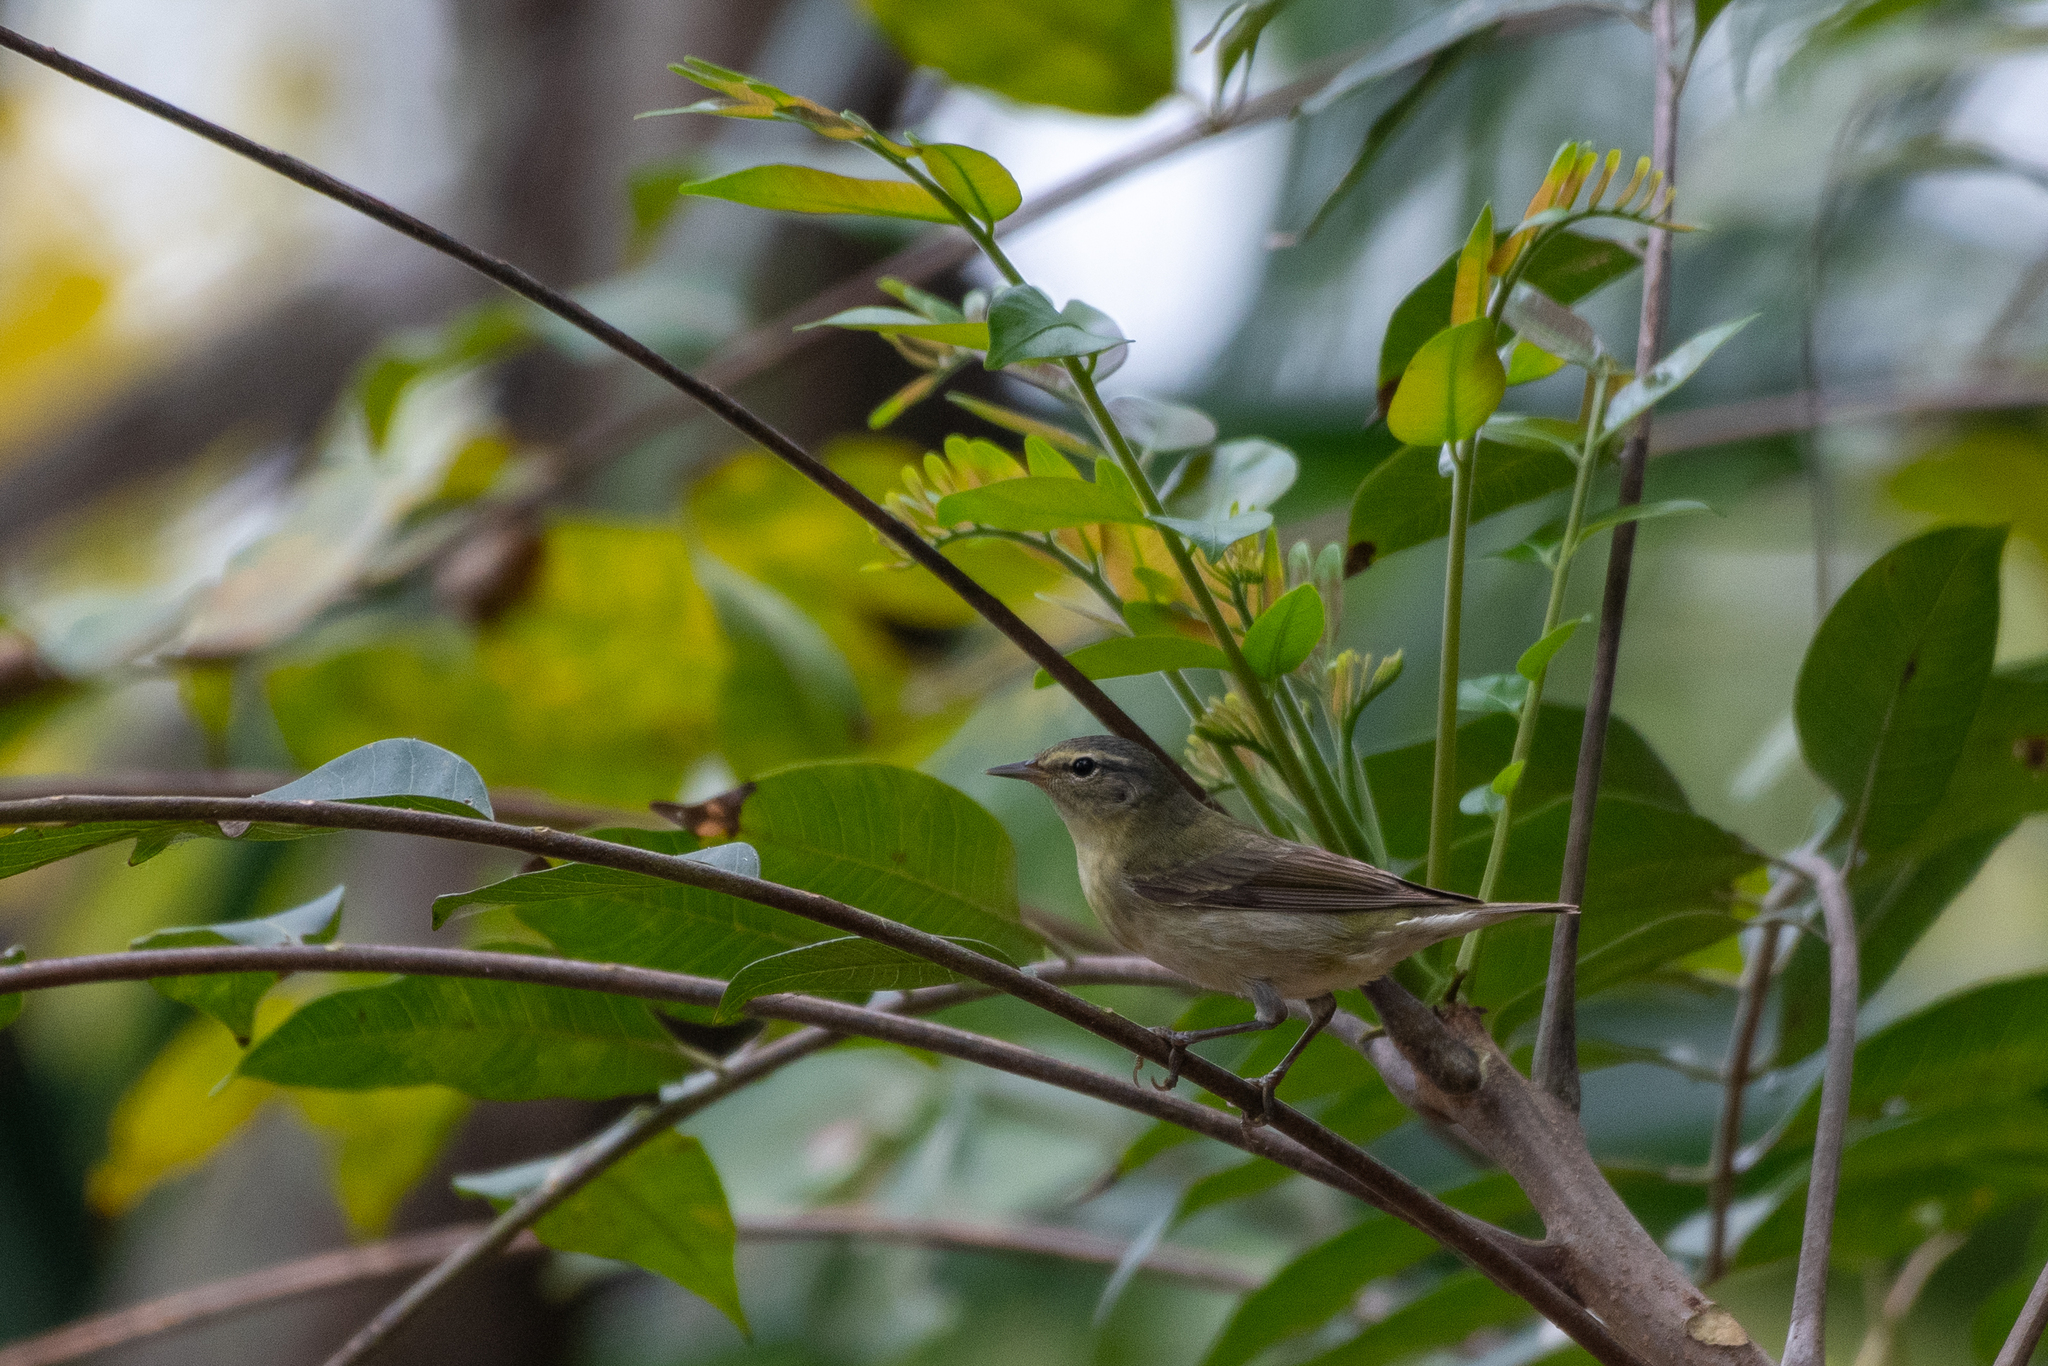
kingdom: Animalia
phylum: Chordata
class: Aves
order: Passeriformes
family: Parulidae
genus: Leiothlypis
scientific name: Leiothlypis peregrina
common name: Tennessee warbler
